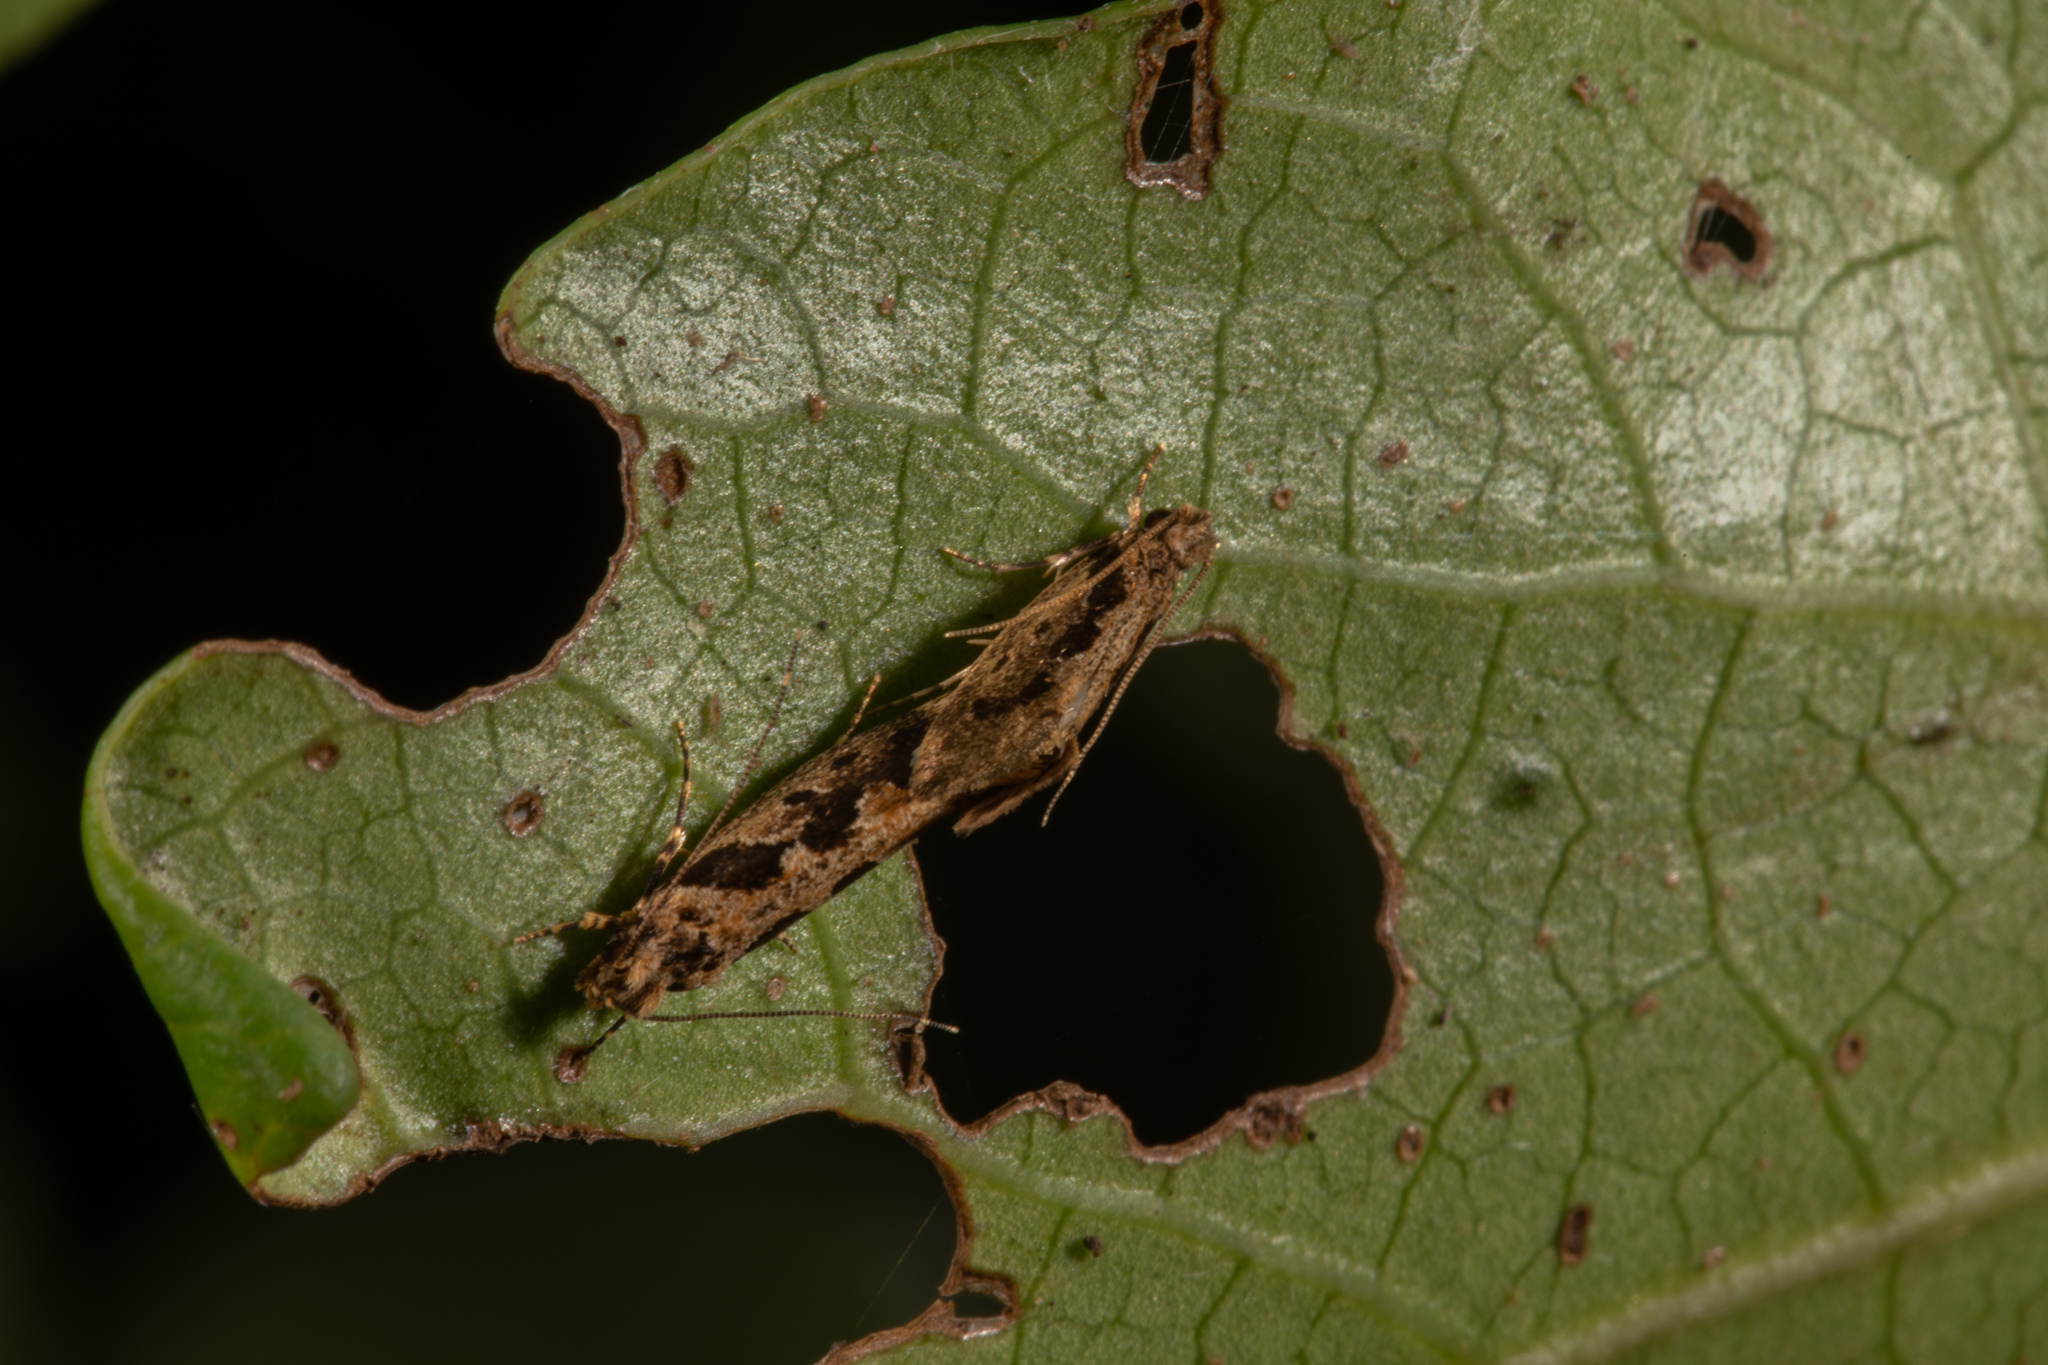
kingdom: Animalia
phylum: Arthropoda
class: Insecta
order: Lepidoptera
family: Tineidae
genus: Erechthias
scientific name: Erechthias capnitis
